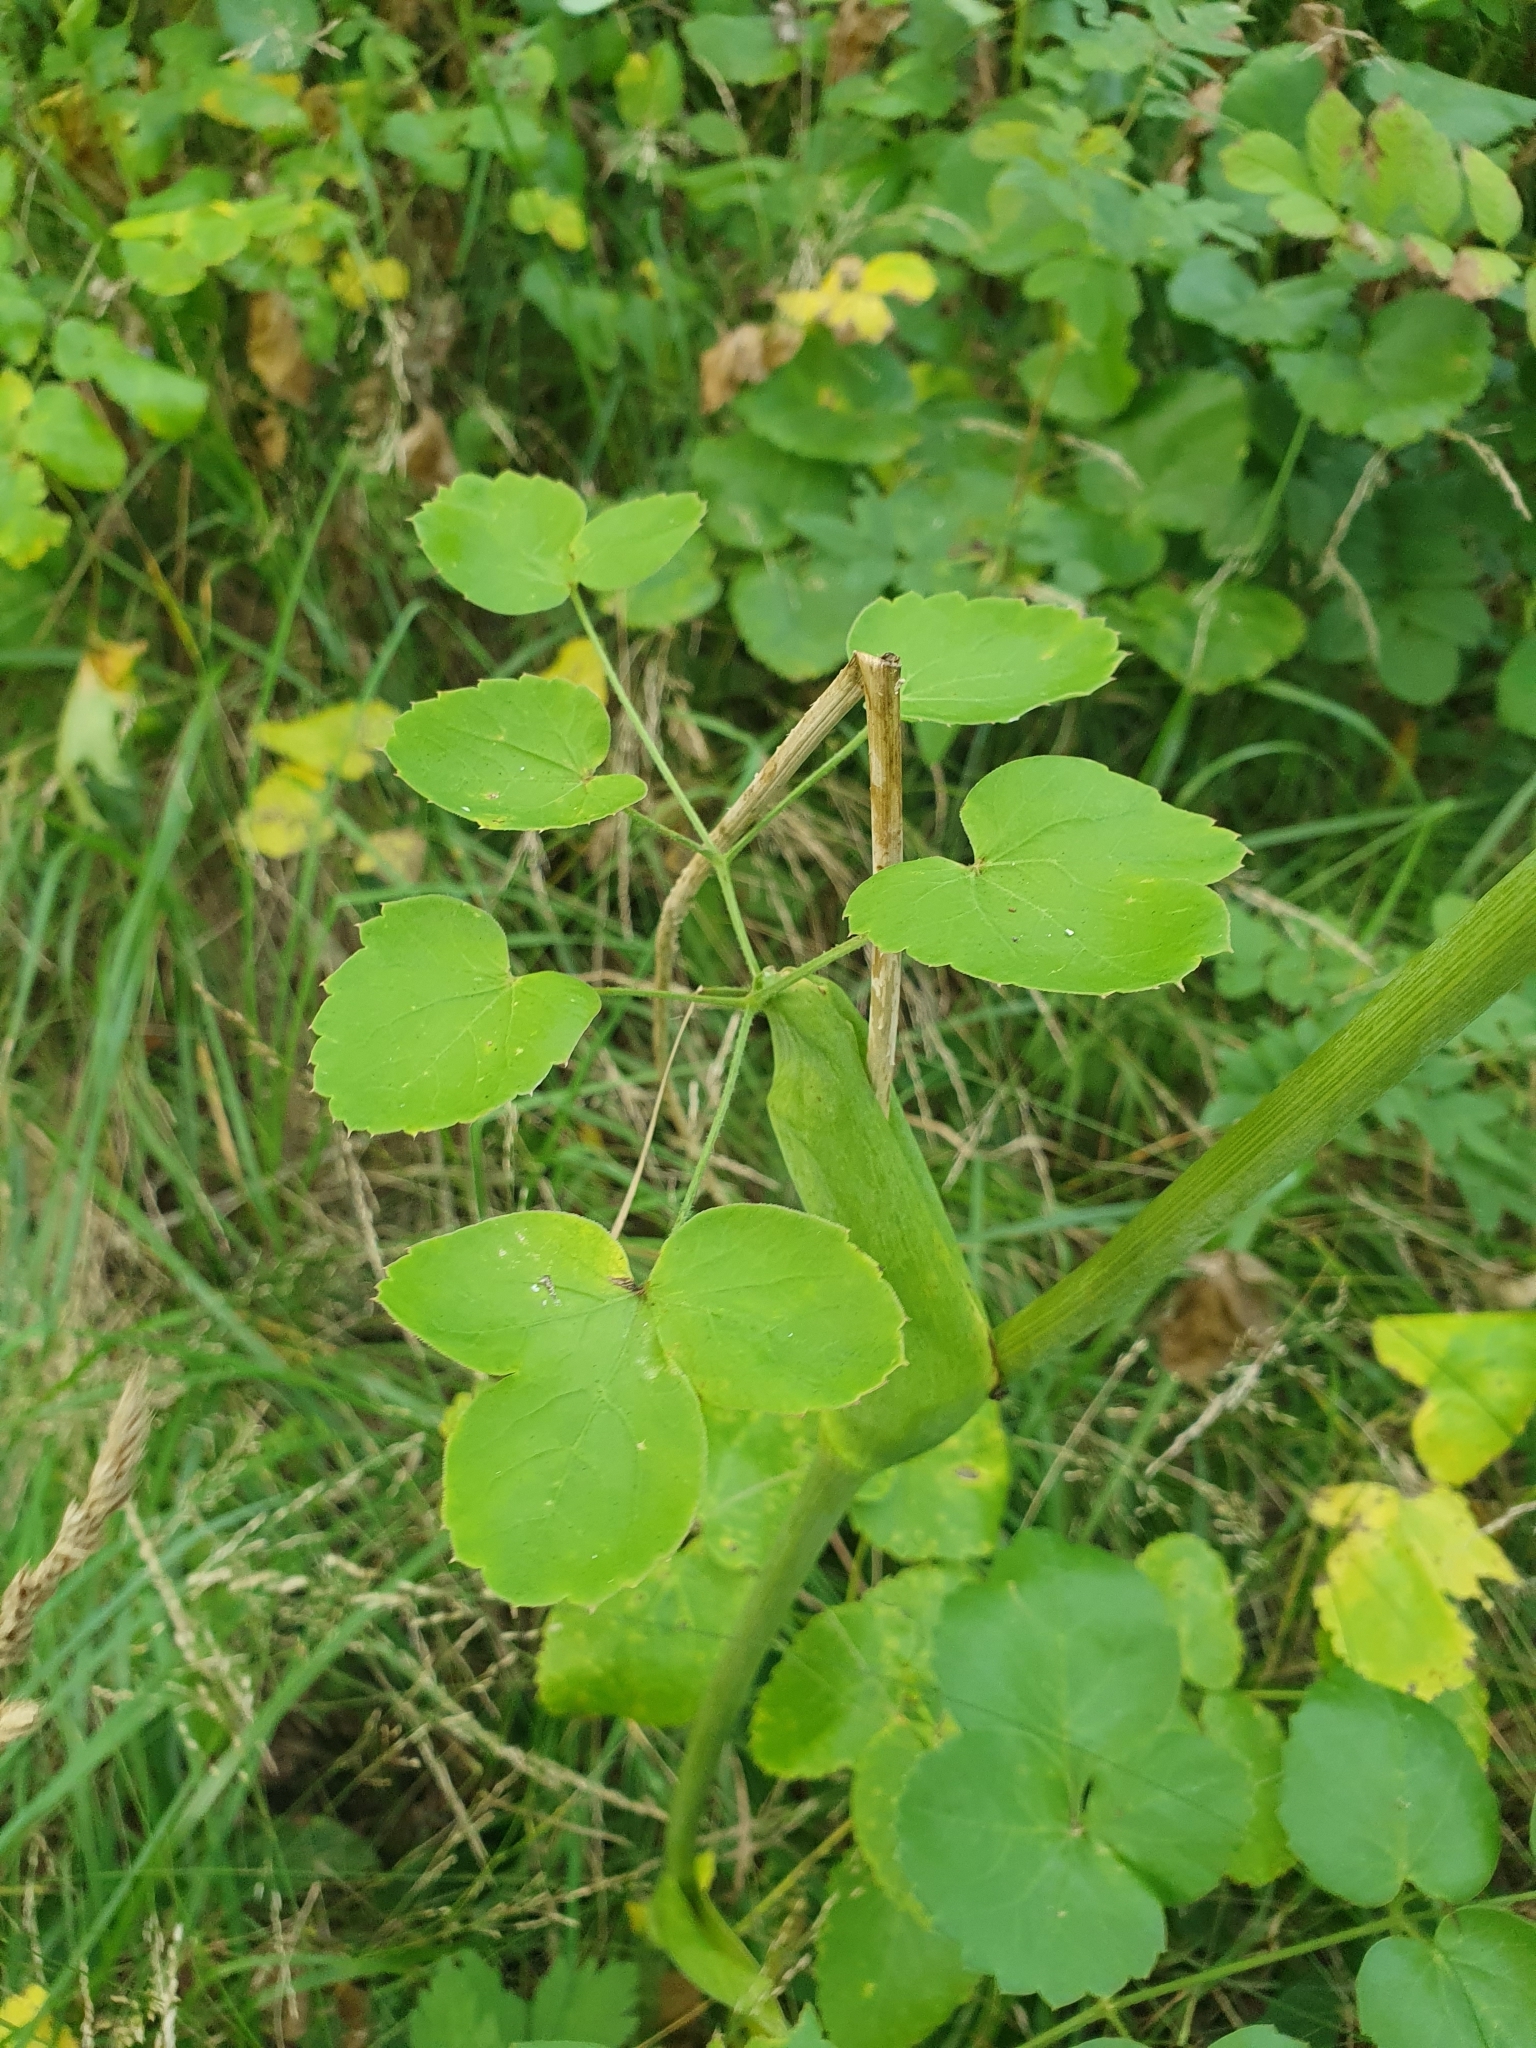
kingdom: Plantae
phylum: Tracheophyta
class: Magnoliopsida
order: Apiales
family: Apiaceae
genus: Laserpitium
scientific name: Laserpitium latifolium
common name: Broadleaf sermountain
